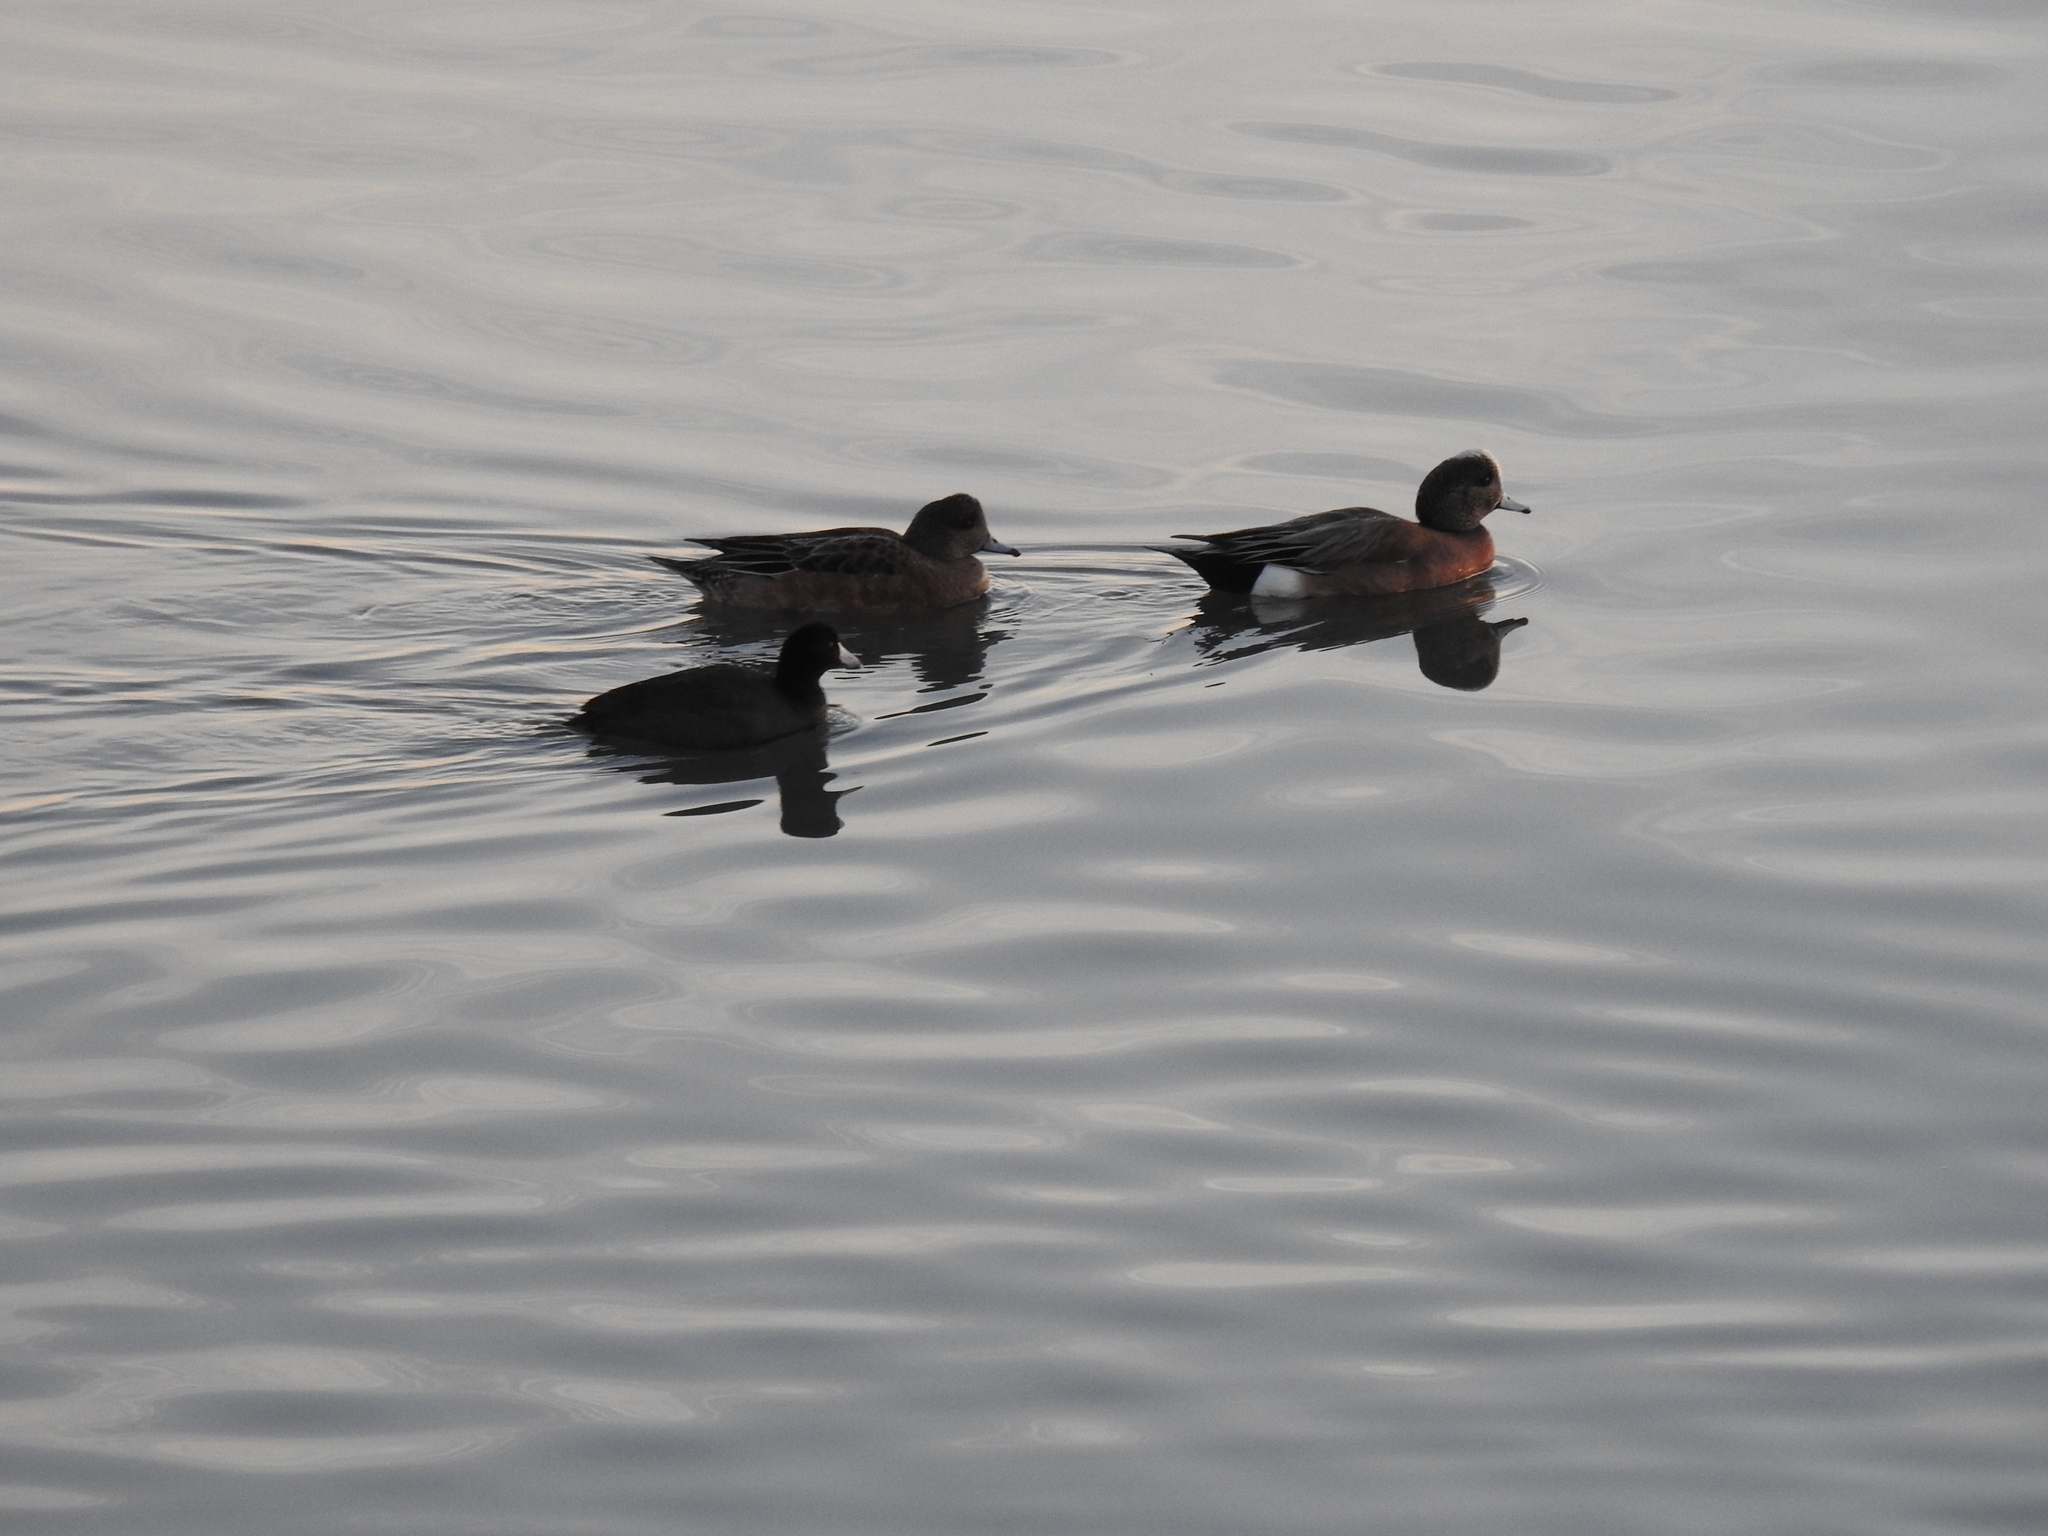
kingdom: Animalia
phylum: Chordata
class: Aves
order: Anseriformes
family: Anatidae
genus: Mareca
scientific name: Mareca americana
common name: American wigeon
